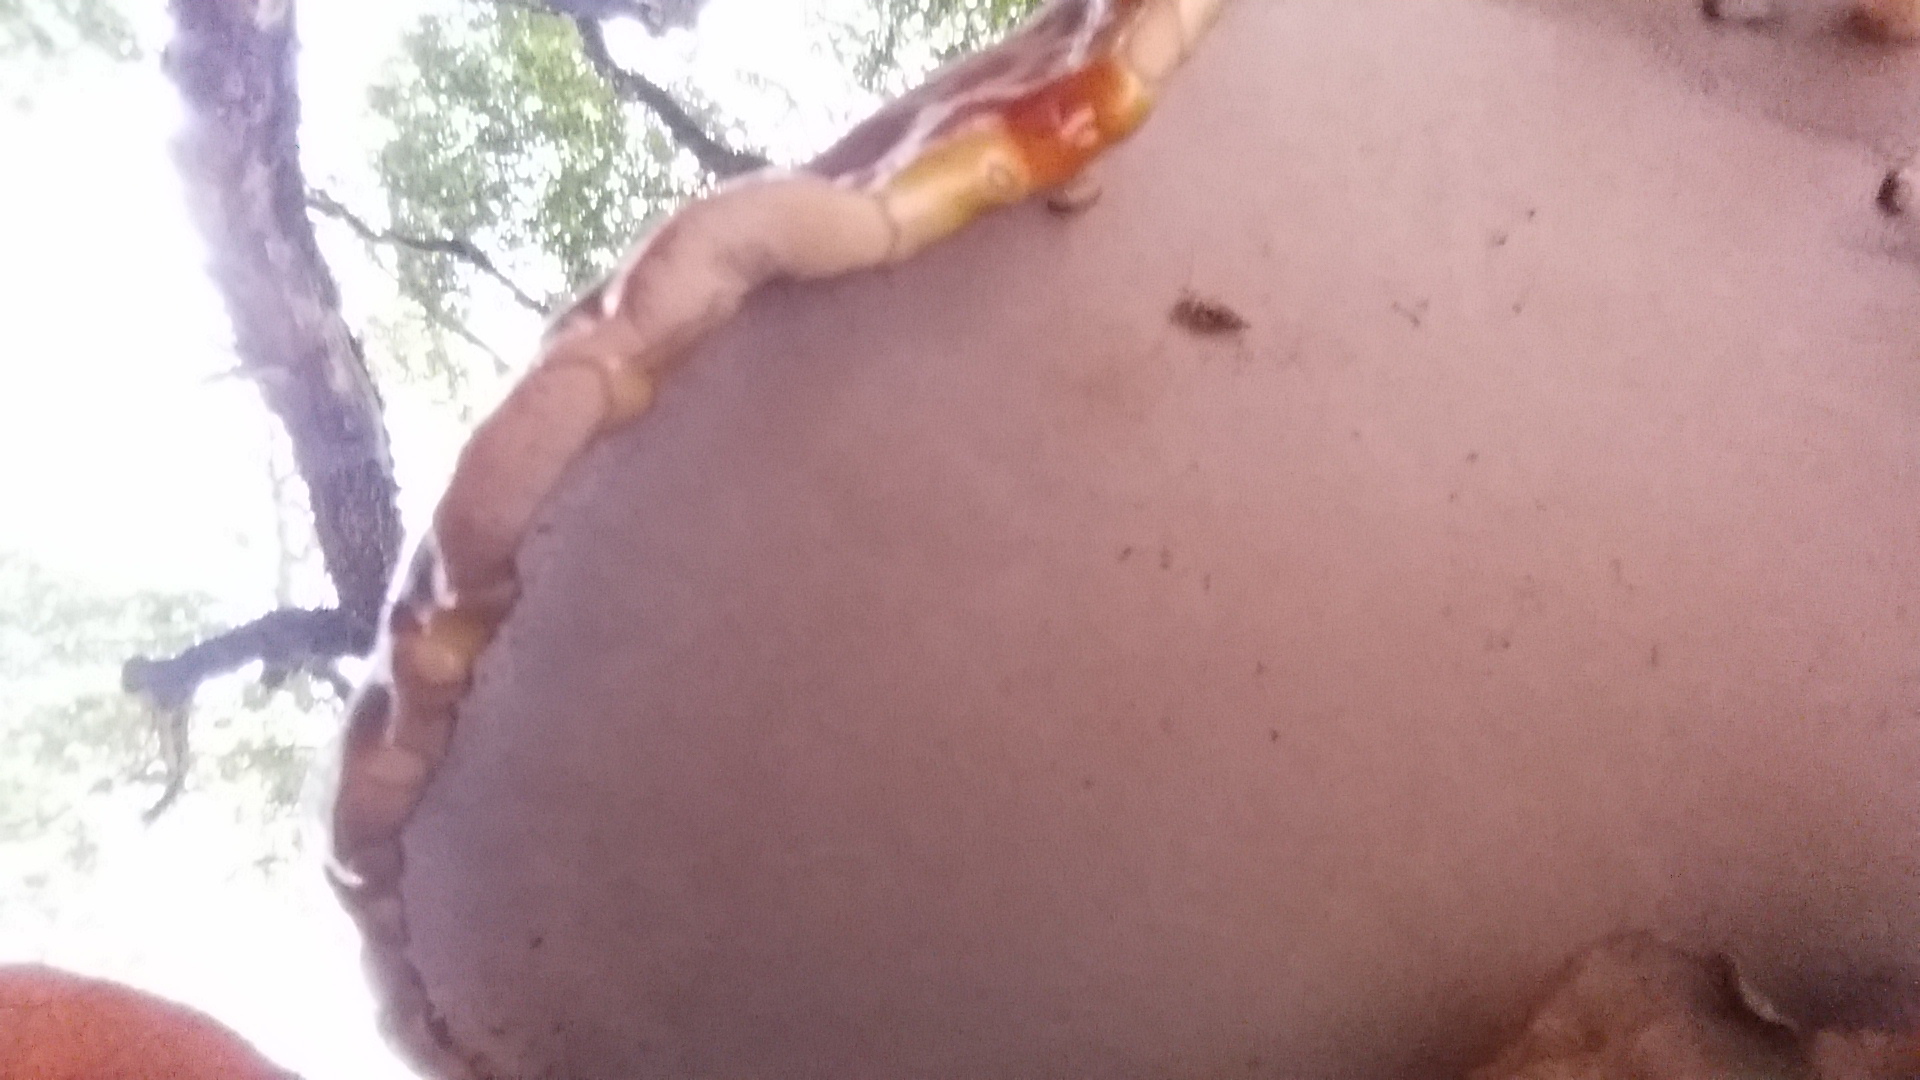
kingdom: Fungi
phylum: Basidiomycota
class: Agaricomycetes
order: Polyporales
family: Polyporaceae
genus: Ganoderma
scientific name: Ganoderma oregonense
